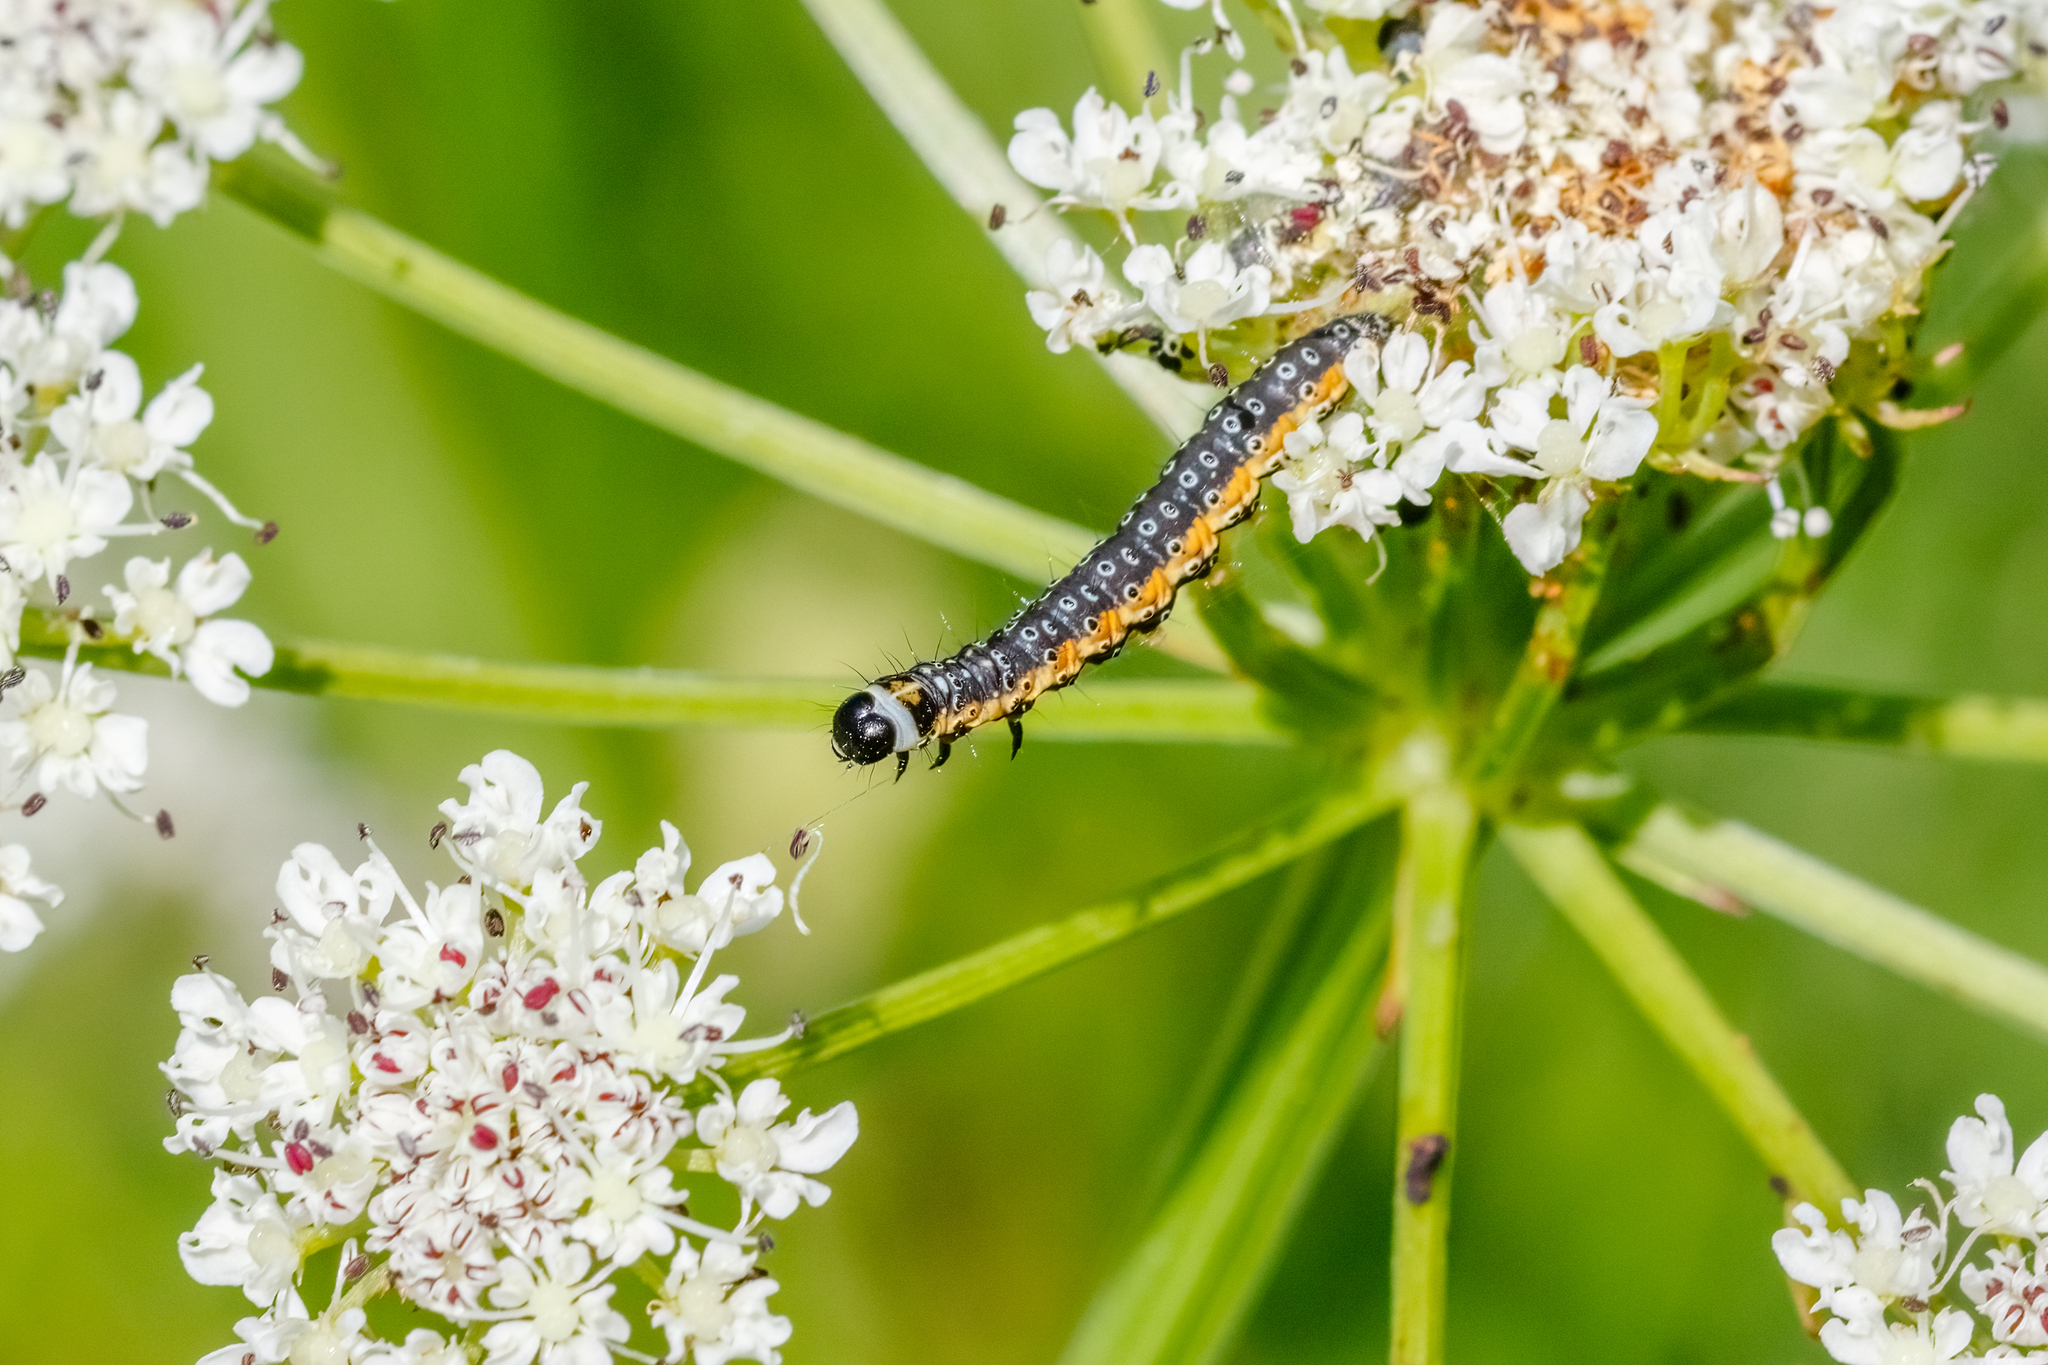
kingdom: Animalia
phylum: Arthropoda
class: Insecta
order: Lepidoptera
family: Depressariidae
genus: Depressaria
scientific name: Depressaria apiella
